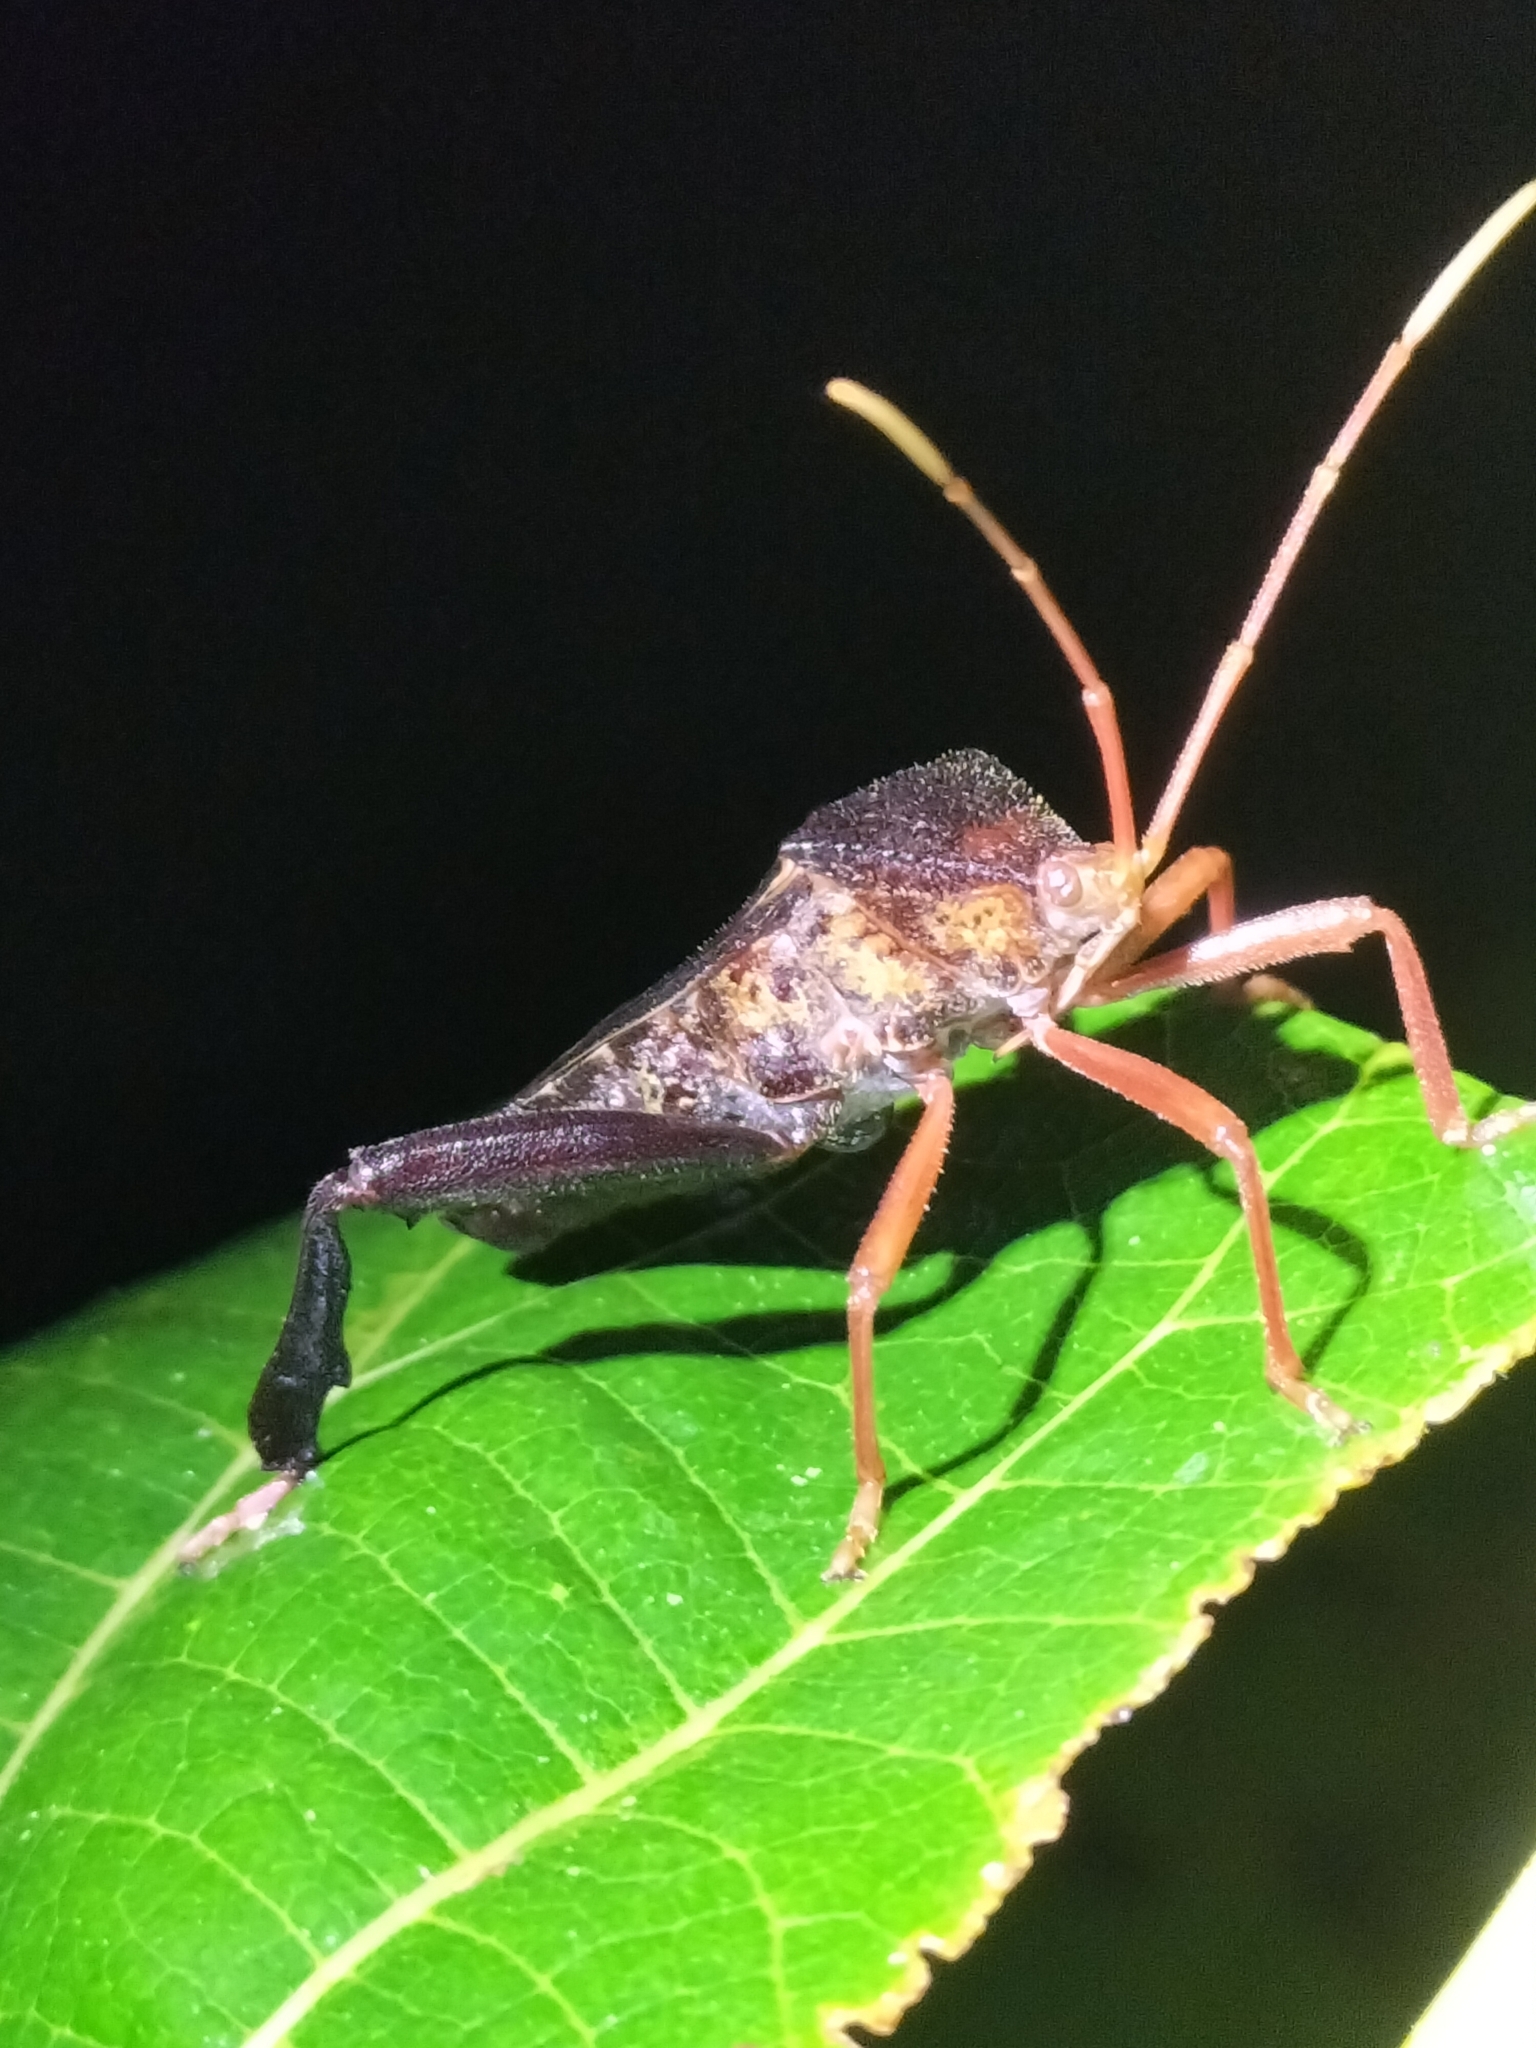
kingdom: Animalia
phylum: Arthropoda
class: Insecta
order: Hemiptera
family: Coreidae
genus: Pternistria
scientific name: Pternistria bispina
